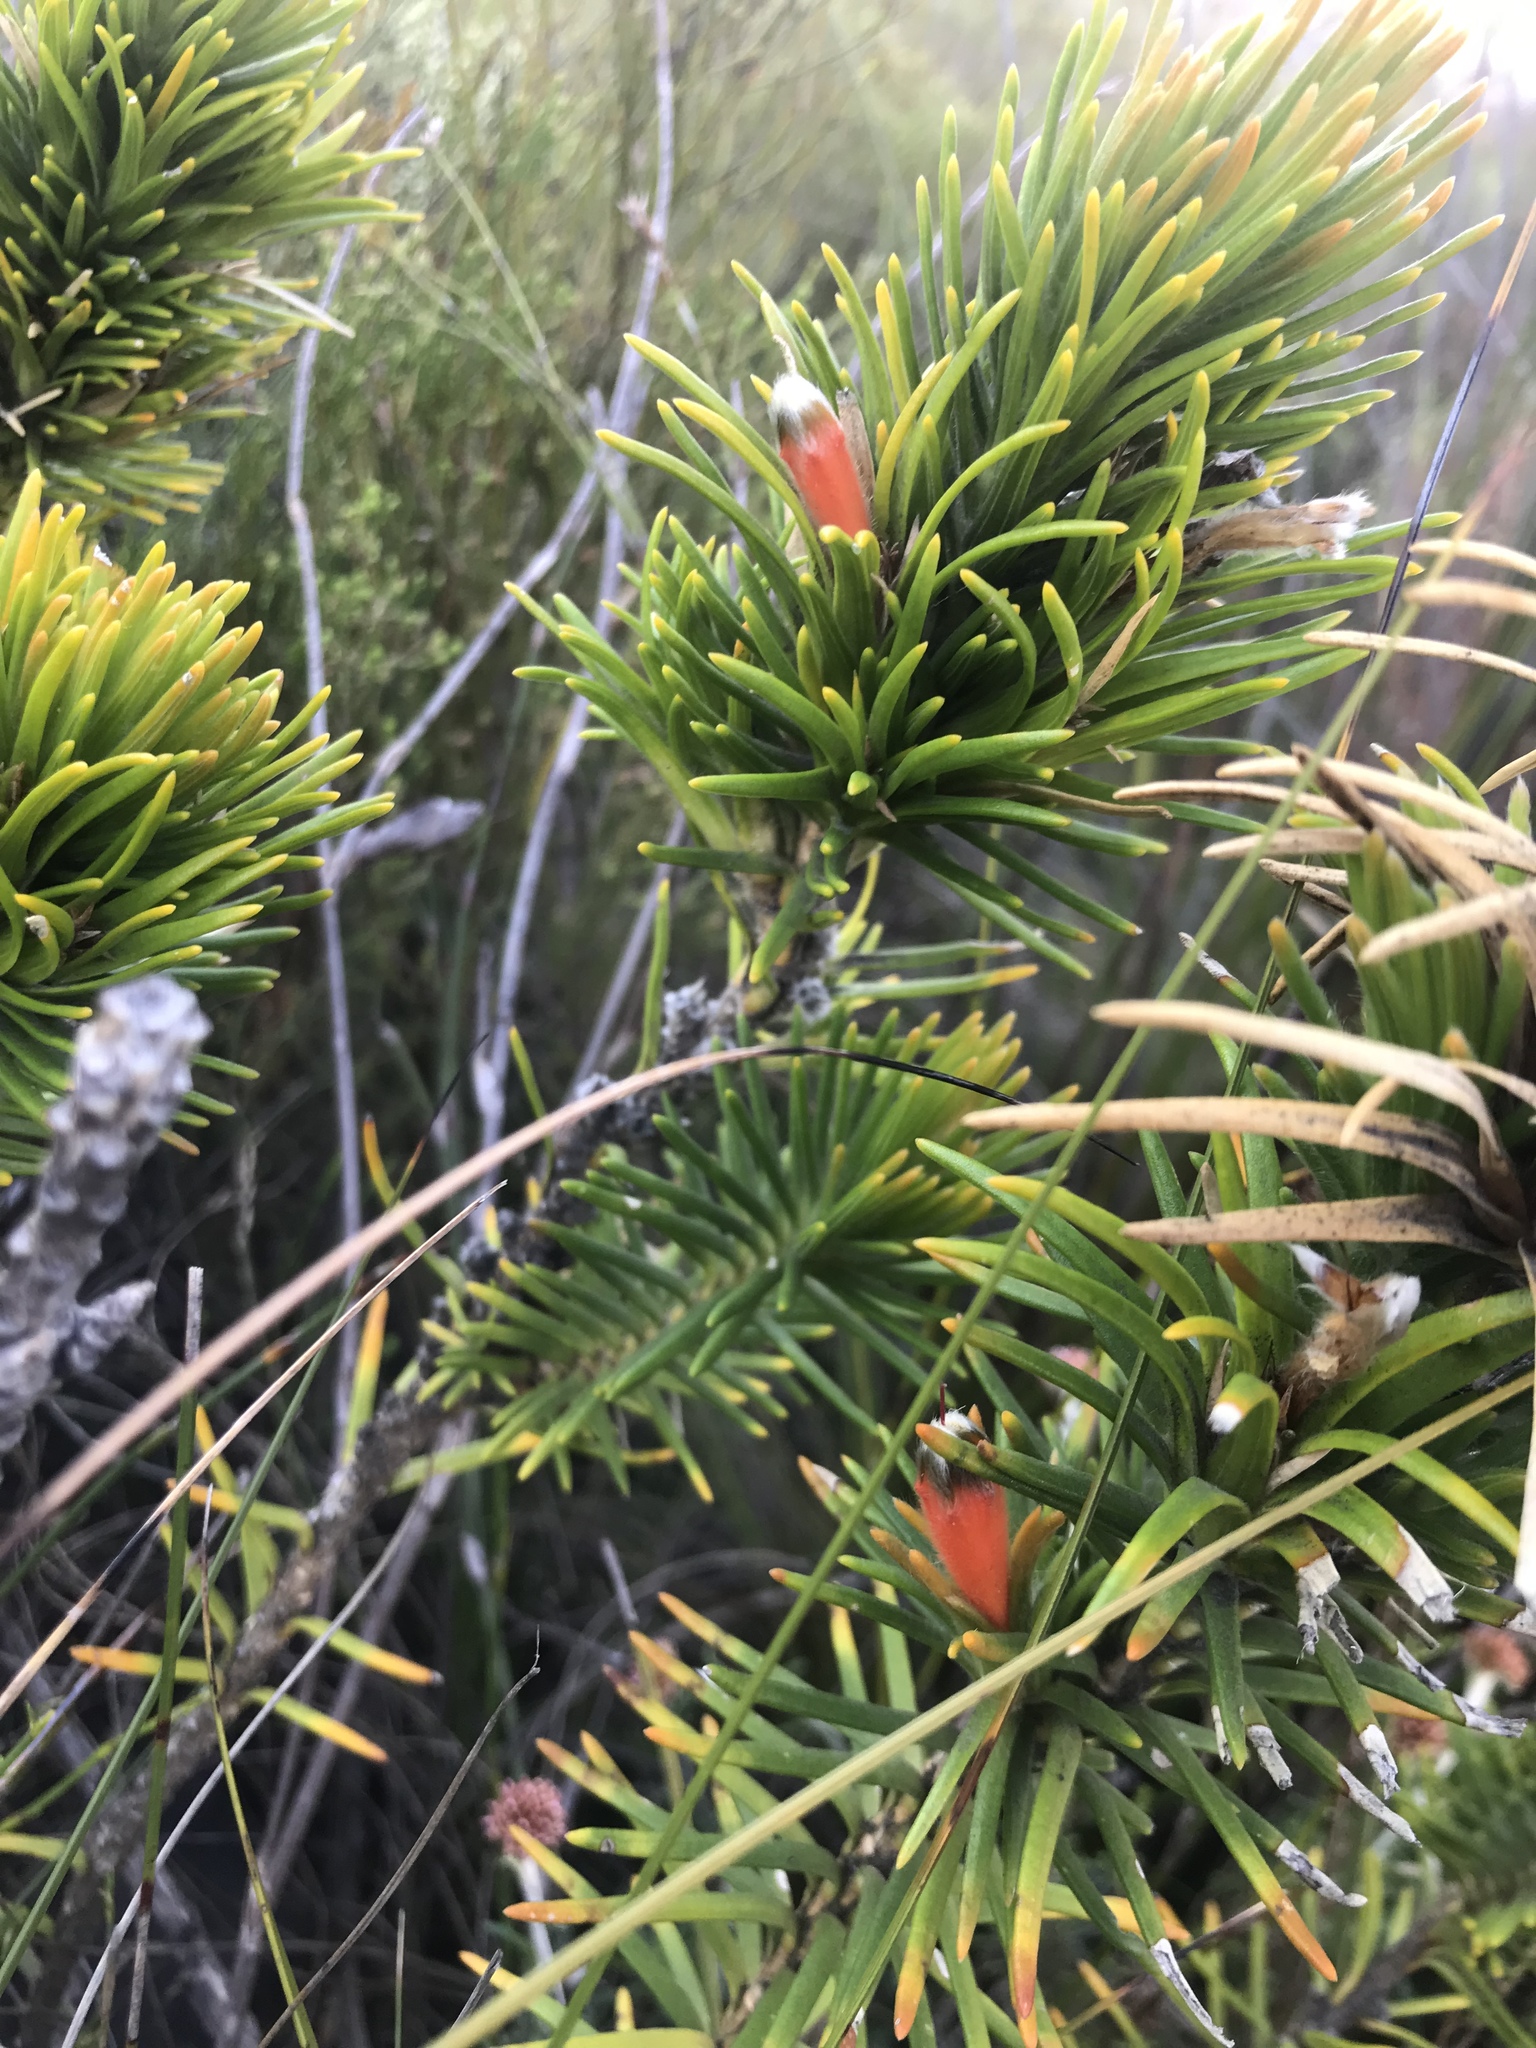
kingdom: Plantae
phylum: Tracheophyta
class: Magnoliopsida
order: Lamiales
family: Stilbaceae
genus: Retzia
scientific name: Retzia capensis
